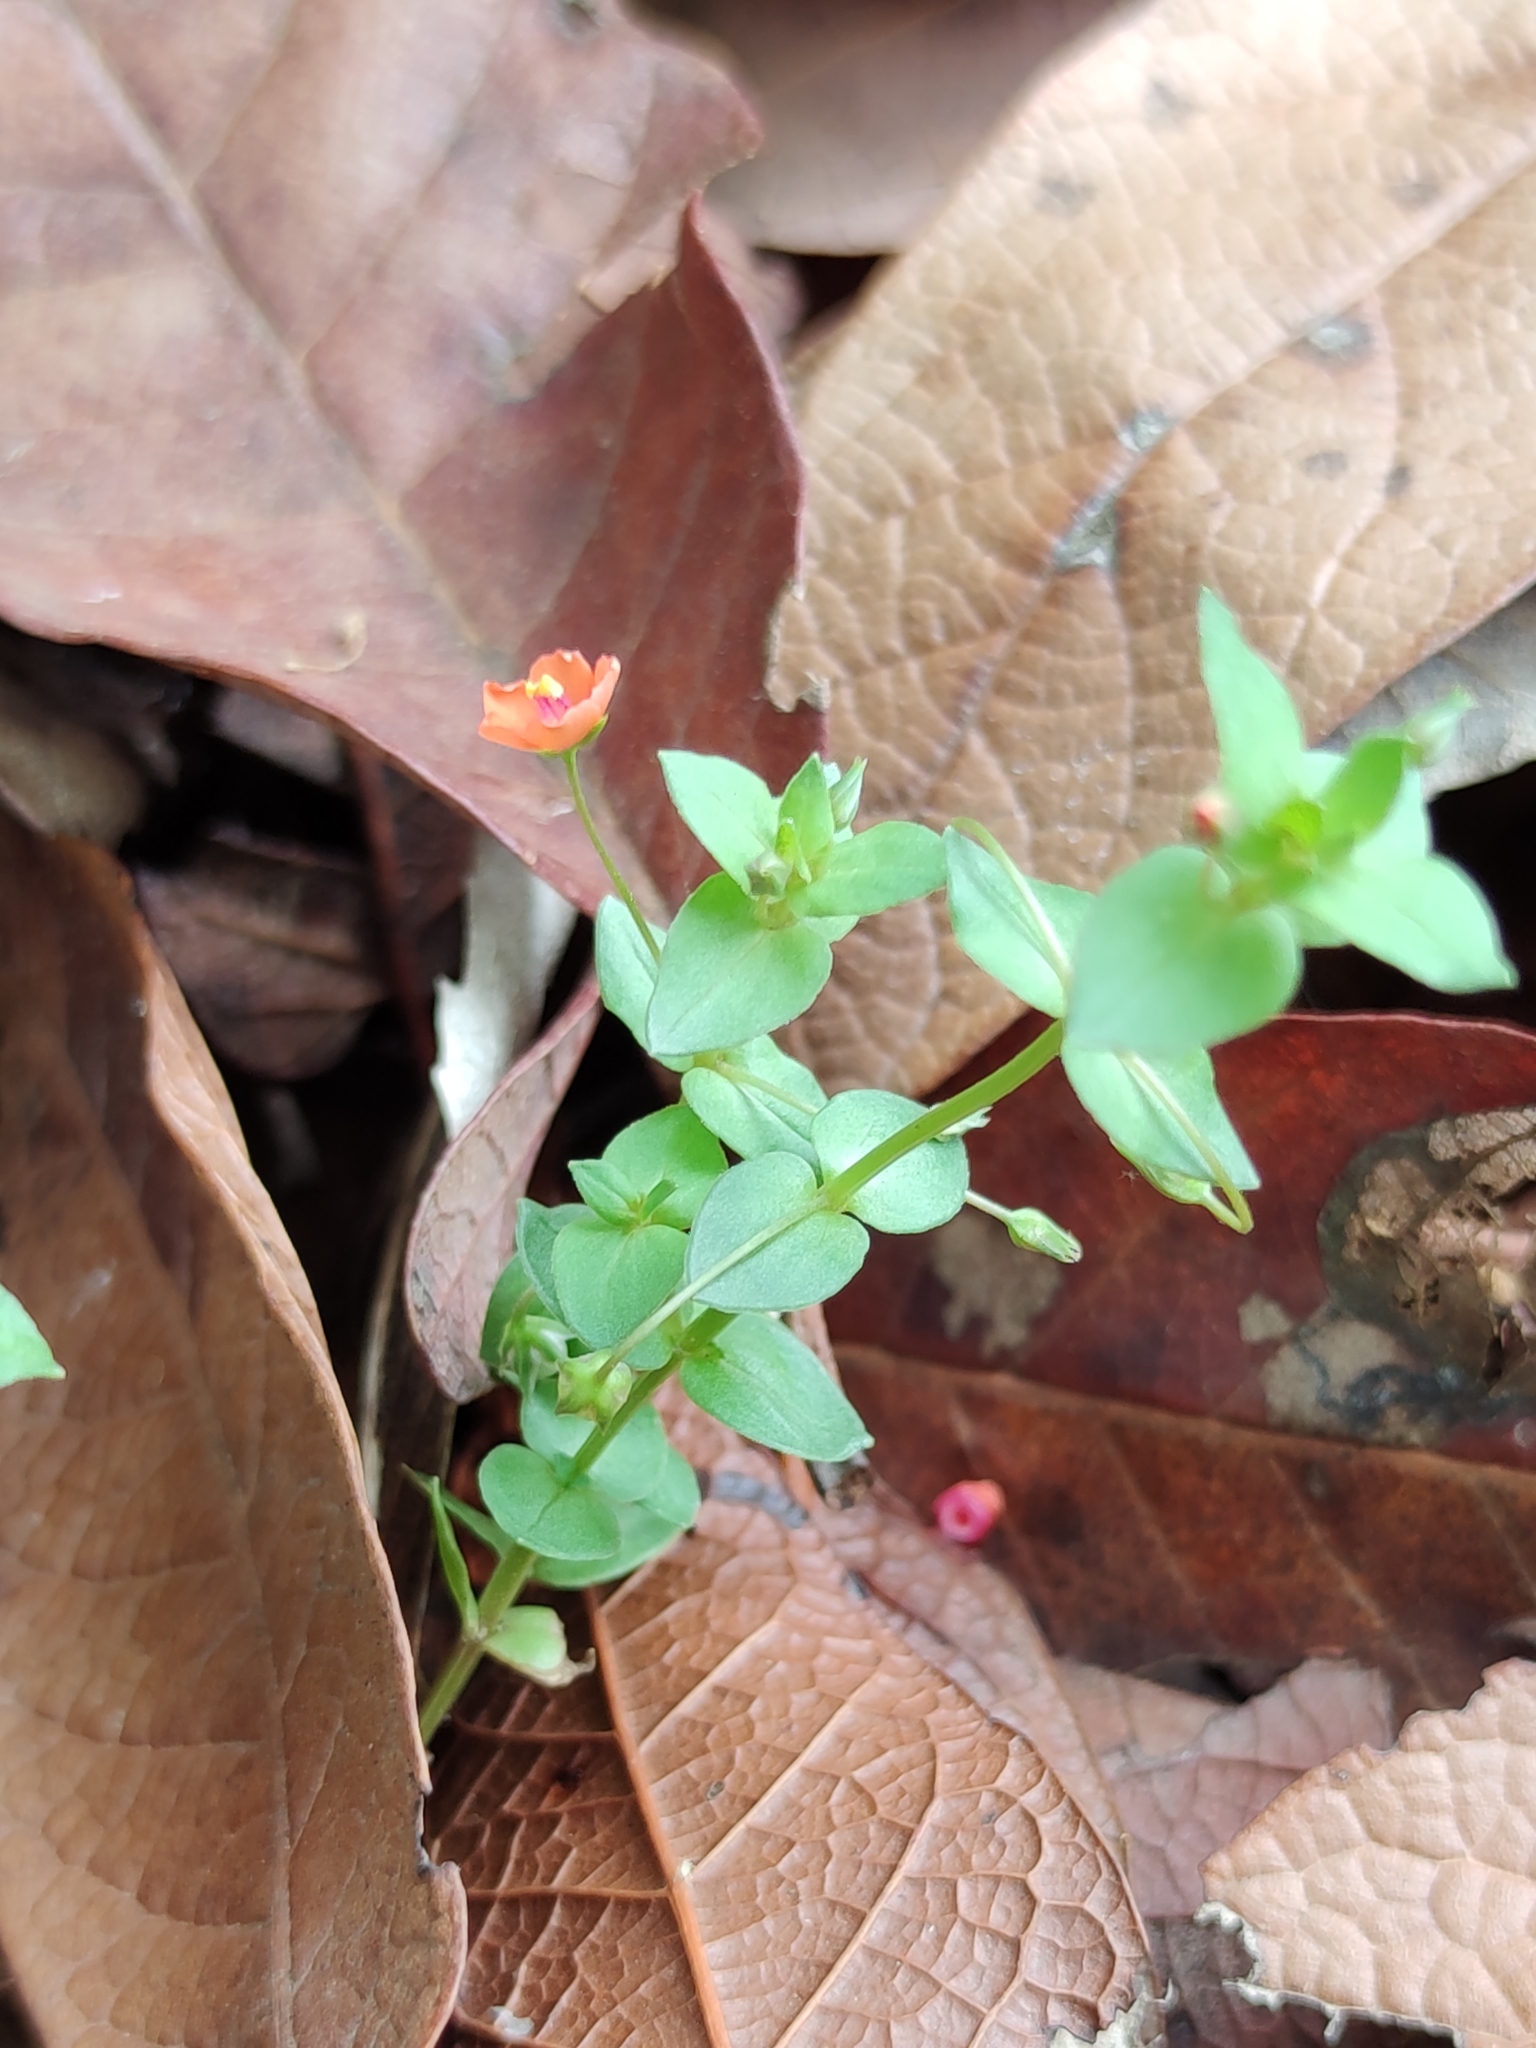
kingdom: Plantae
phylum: Tracheophyta
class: Magnoliopsida
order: Ericales
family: Primulaceae
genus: Lysimachia
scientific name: Lysimachia arvensis
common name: Scarlet pimpernel
